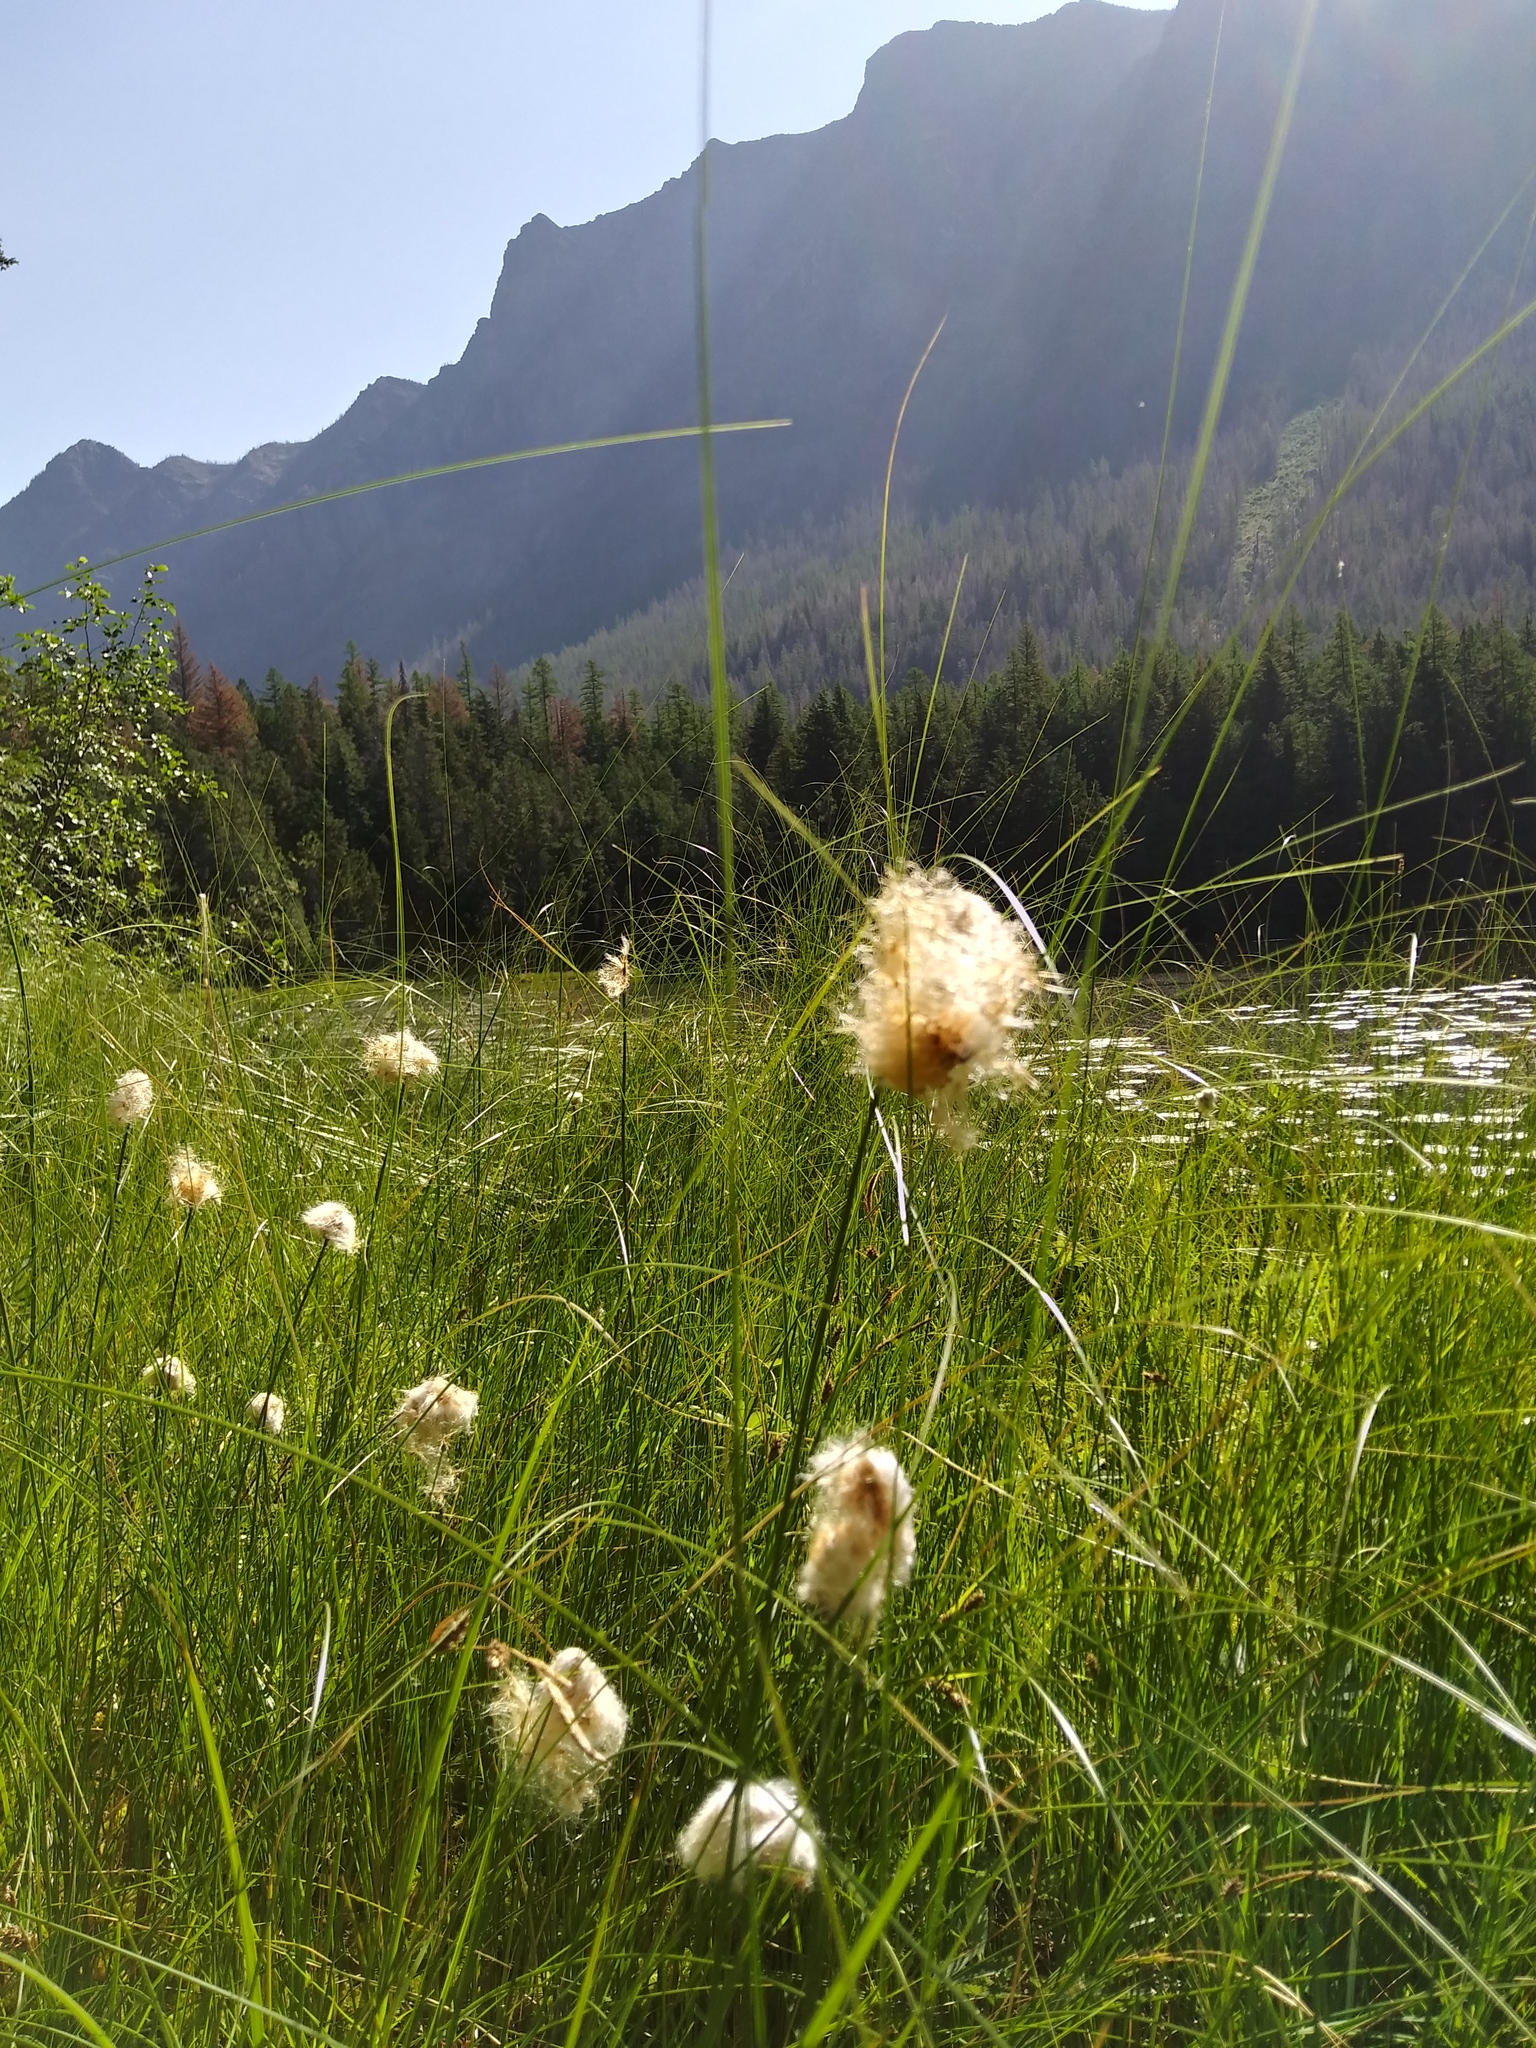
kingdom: Plantae
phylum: Tracheophyta
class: Liliopsida
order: Poales
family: Cyperaceae
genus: Eriophorum
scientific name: Eriophorum chamissonis
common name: Chamisso's cottongrass
